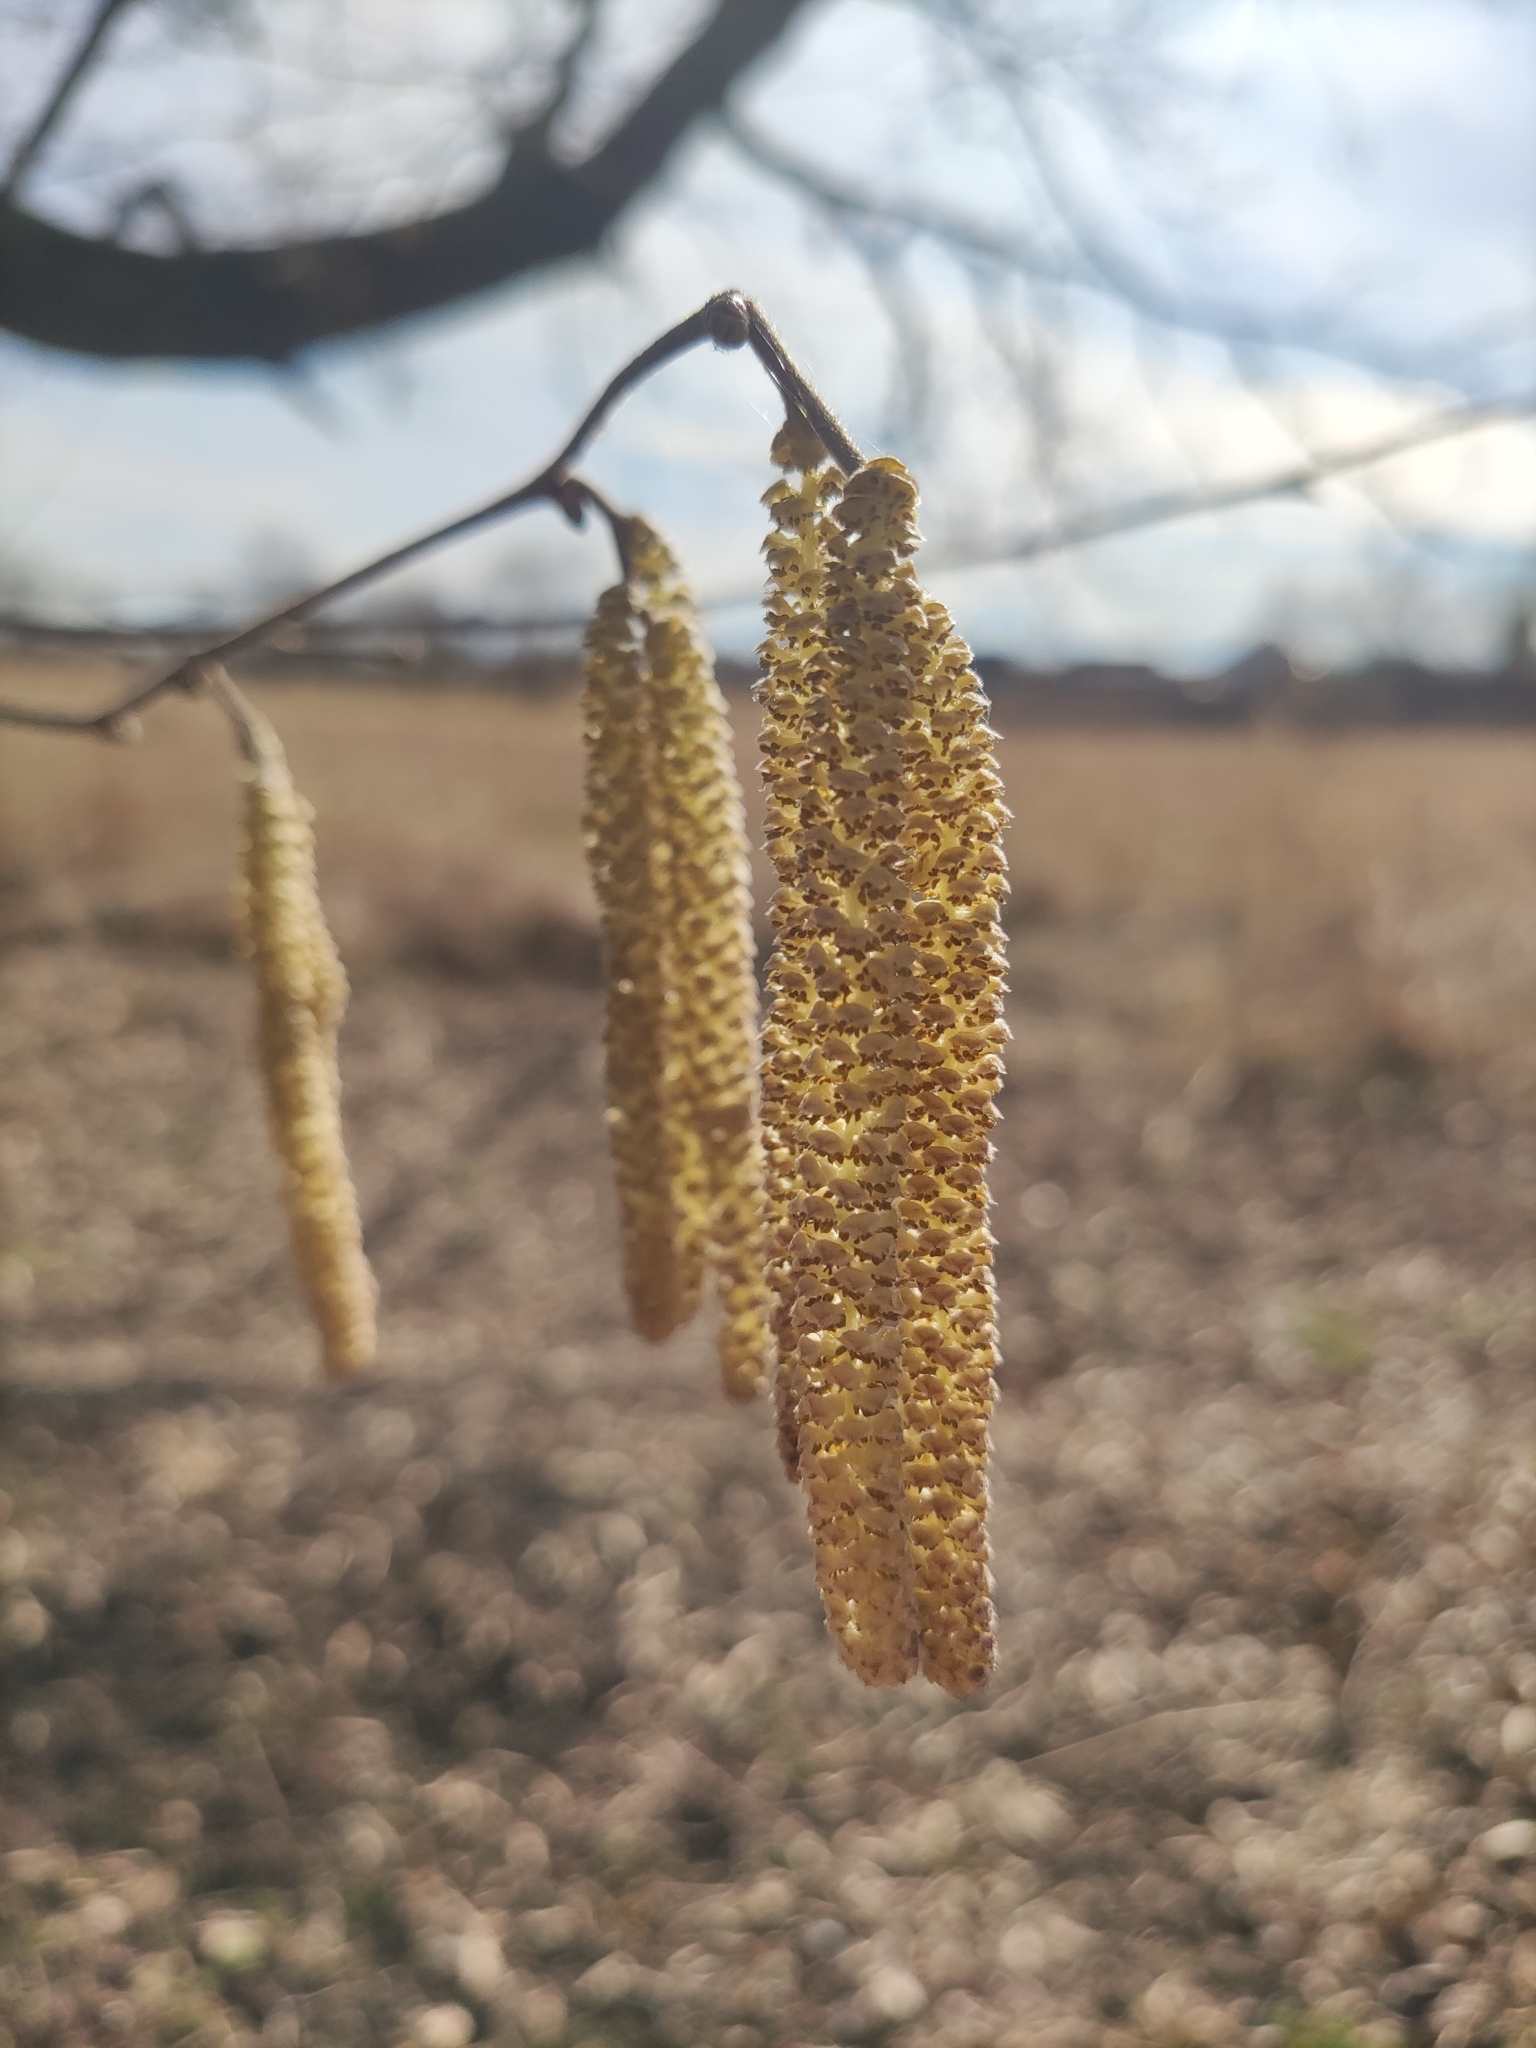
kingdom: Plantae
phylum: Tracheophyta
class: Magnoliopsida
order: Fagales
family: Betulaceae
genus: Corylus
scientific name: Corylus avellana
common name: European hazel
